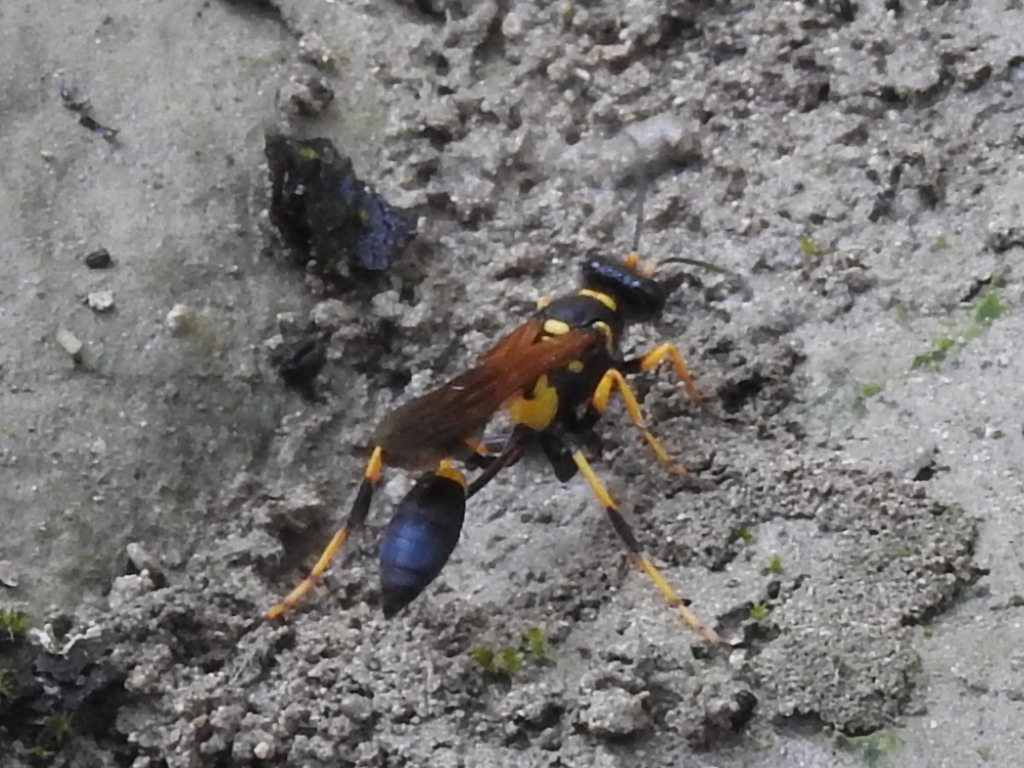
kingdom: Animalia
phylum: Arthropoda
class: Insecta
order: Hymenoptera
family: Sphecidae
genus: Sceliphron
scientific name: Sceliphron caementarium
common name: Mud dauber
